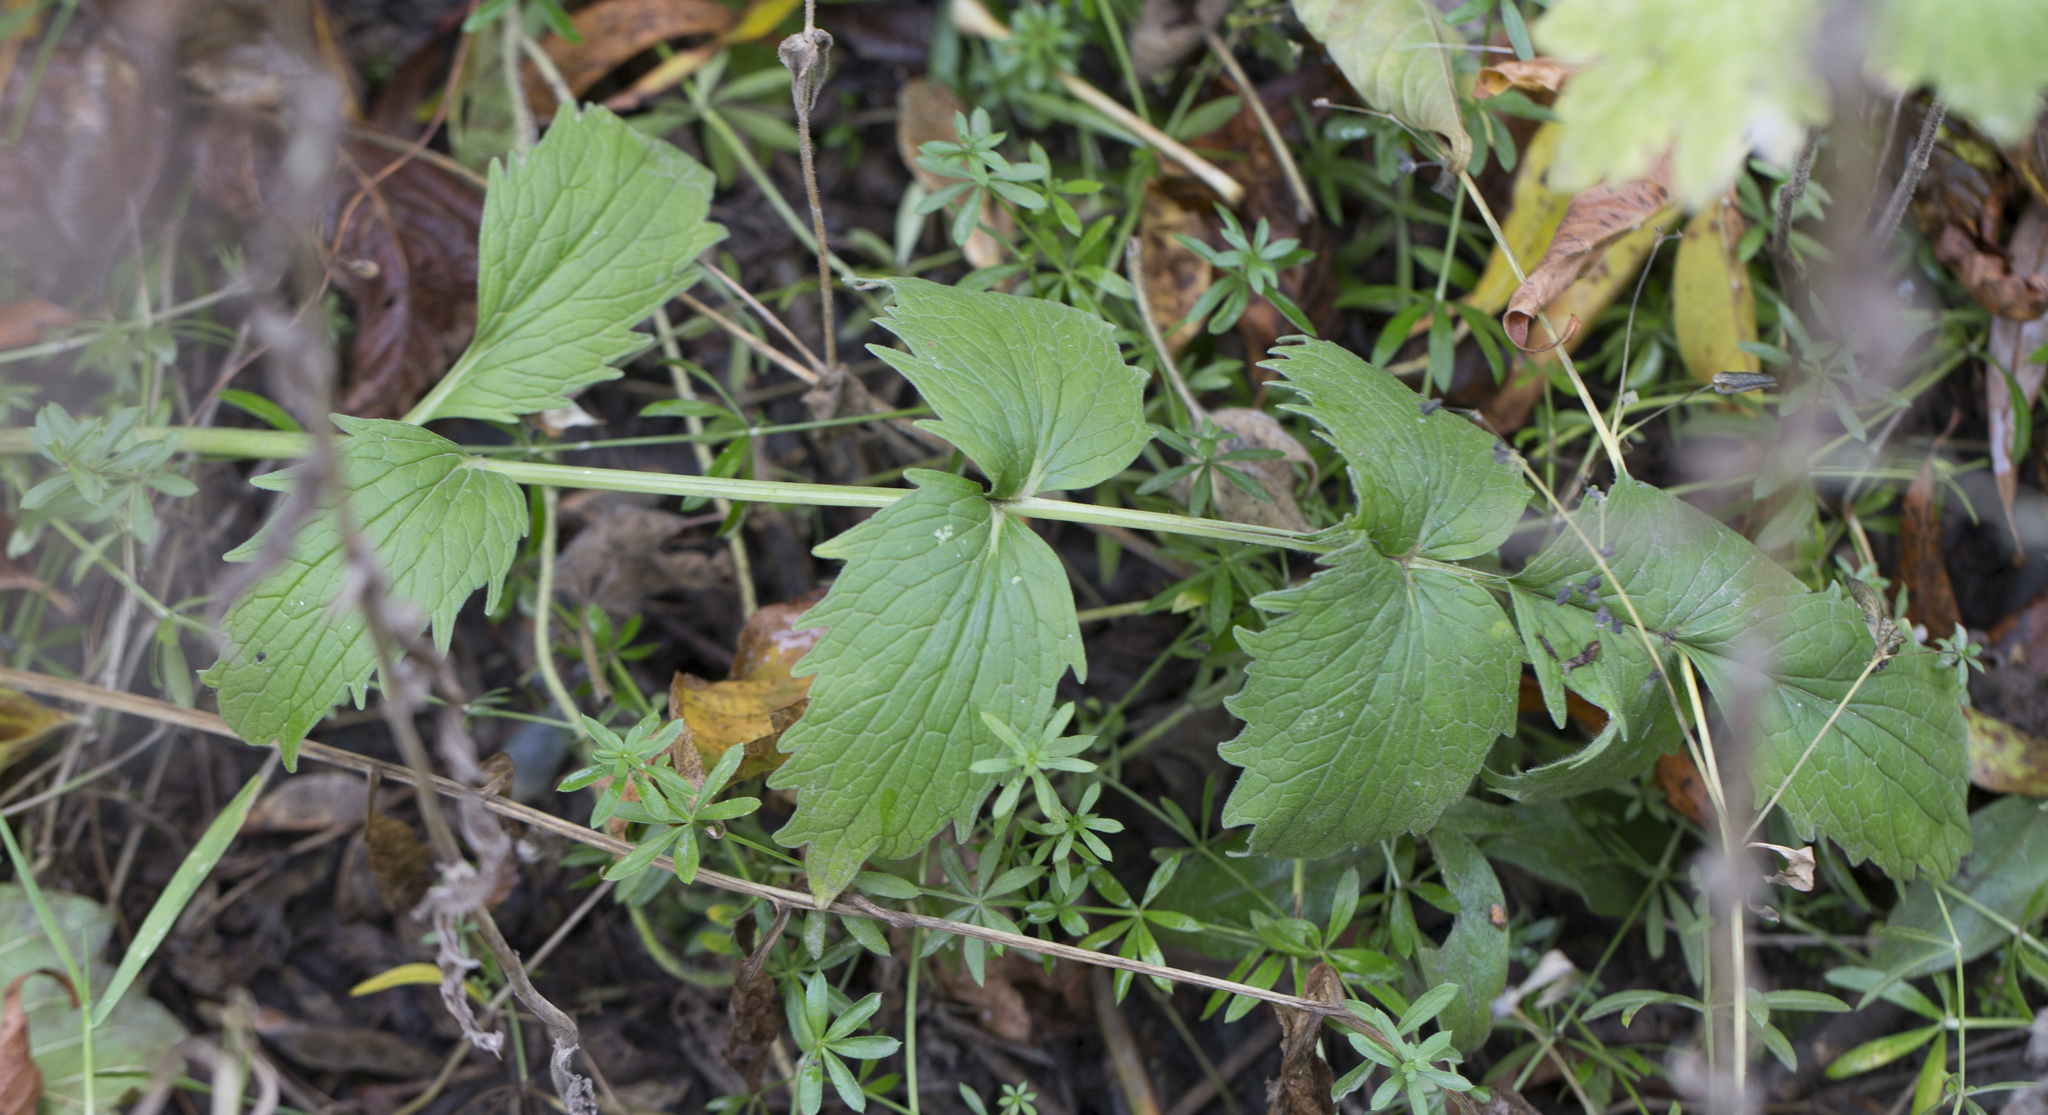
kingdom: Plantae
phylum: Tracheophyta
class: Magnoliopsida
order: Dipsacales
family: Caprifoliaceae
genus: Valeriana
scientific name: Valeriana officinalis
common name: Common valerian
